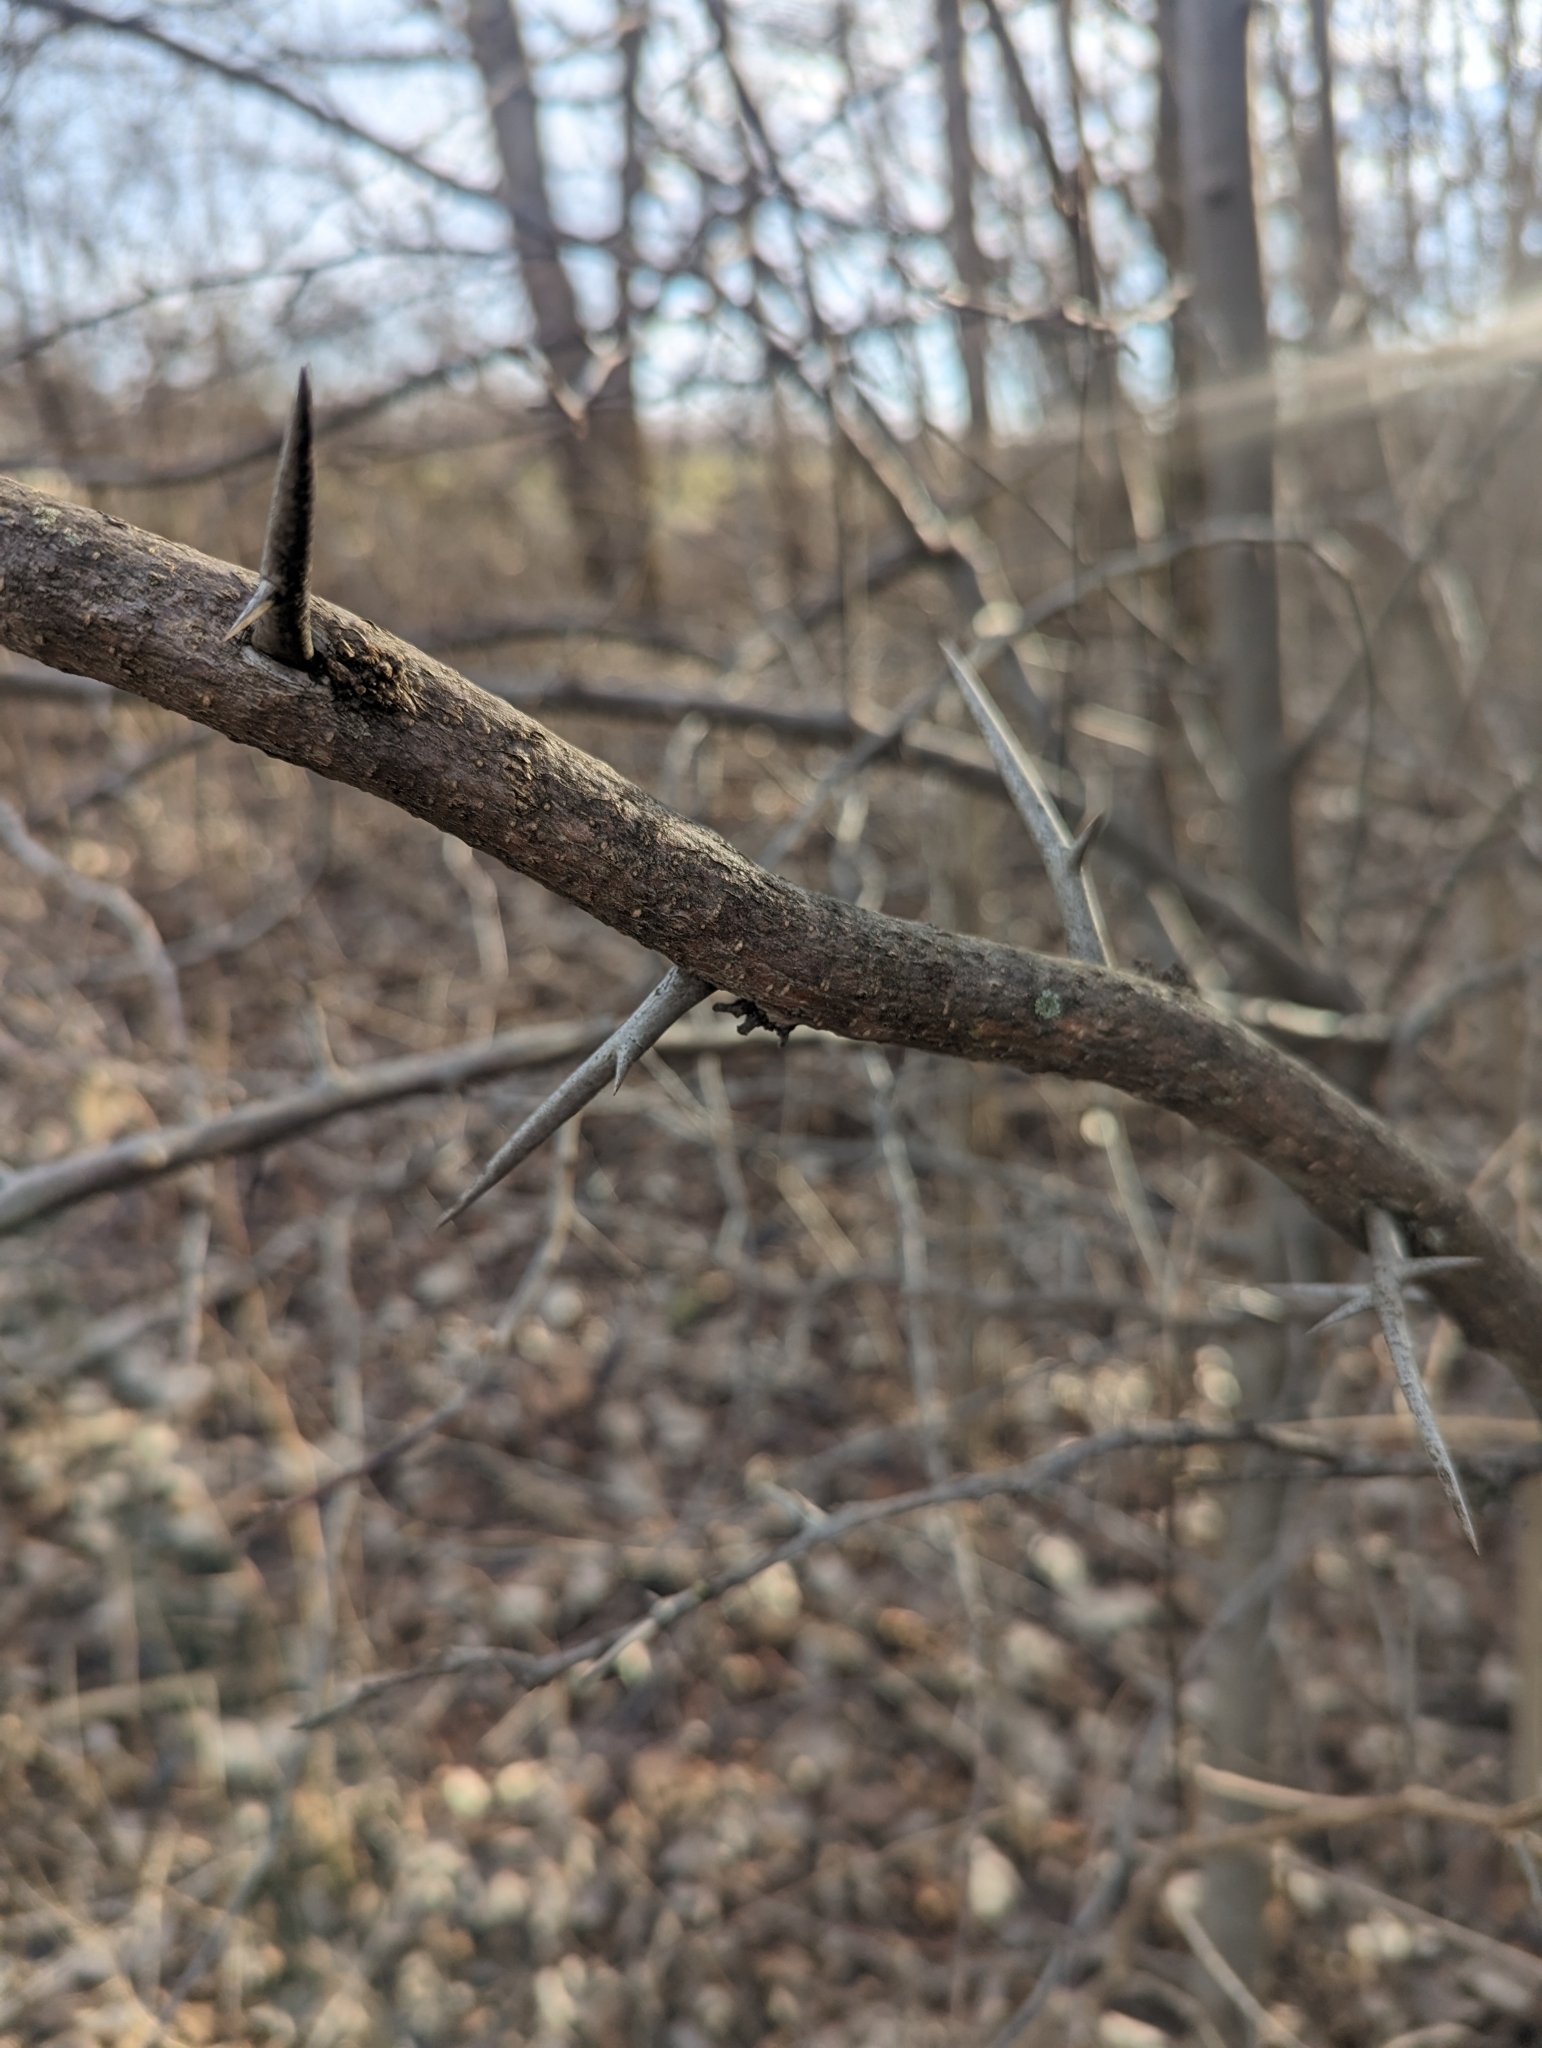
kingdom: Plantae
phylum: Tracheophyta
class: Magnoliopsida
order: Fabales
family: Fabaceae
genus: Gleditsia
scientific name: Gleditsia triacanthos
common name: Common honeylocust
